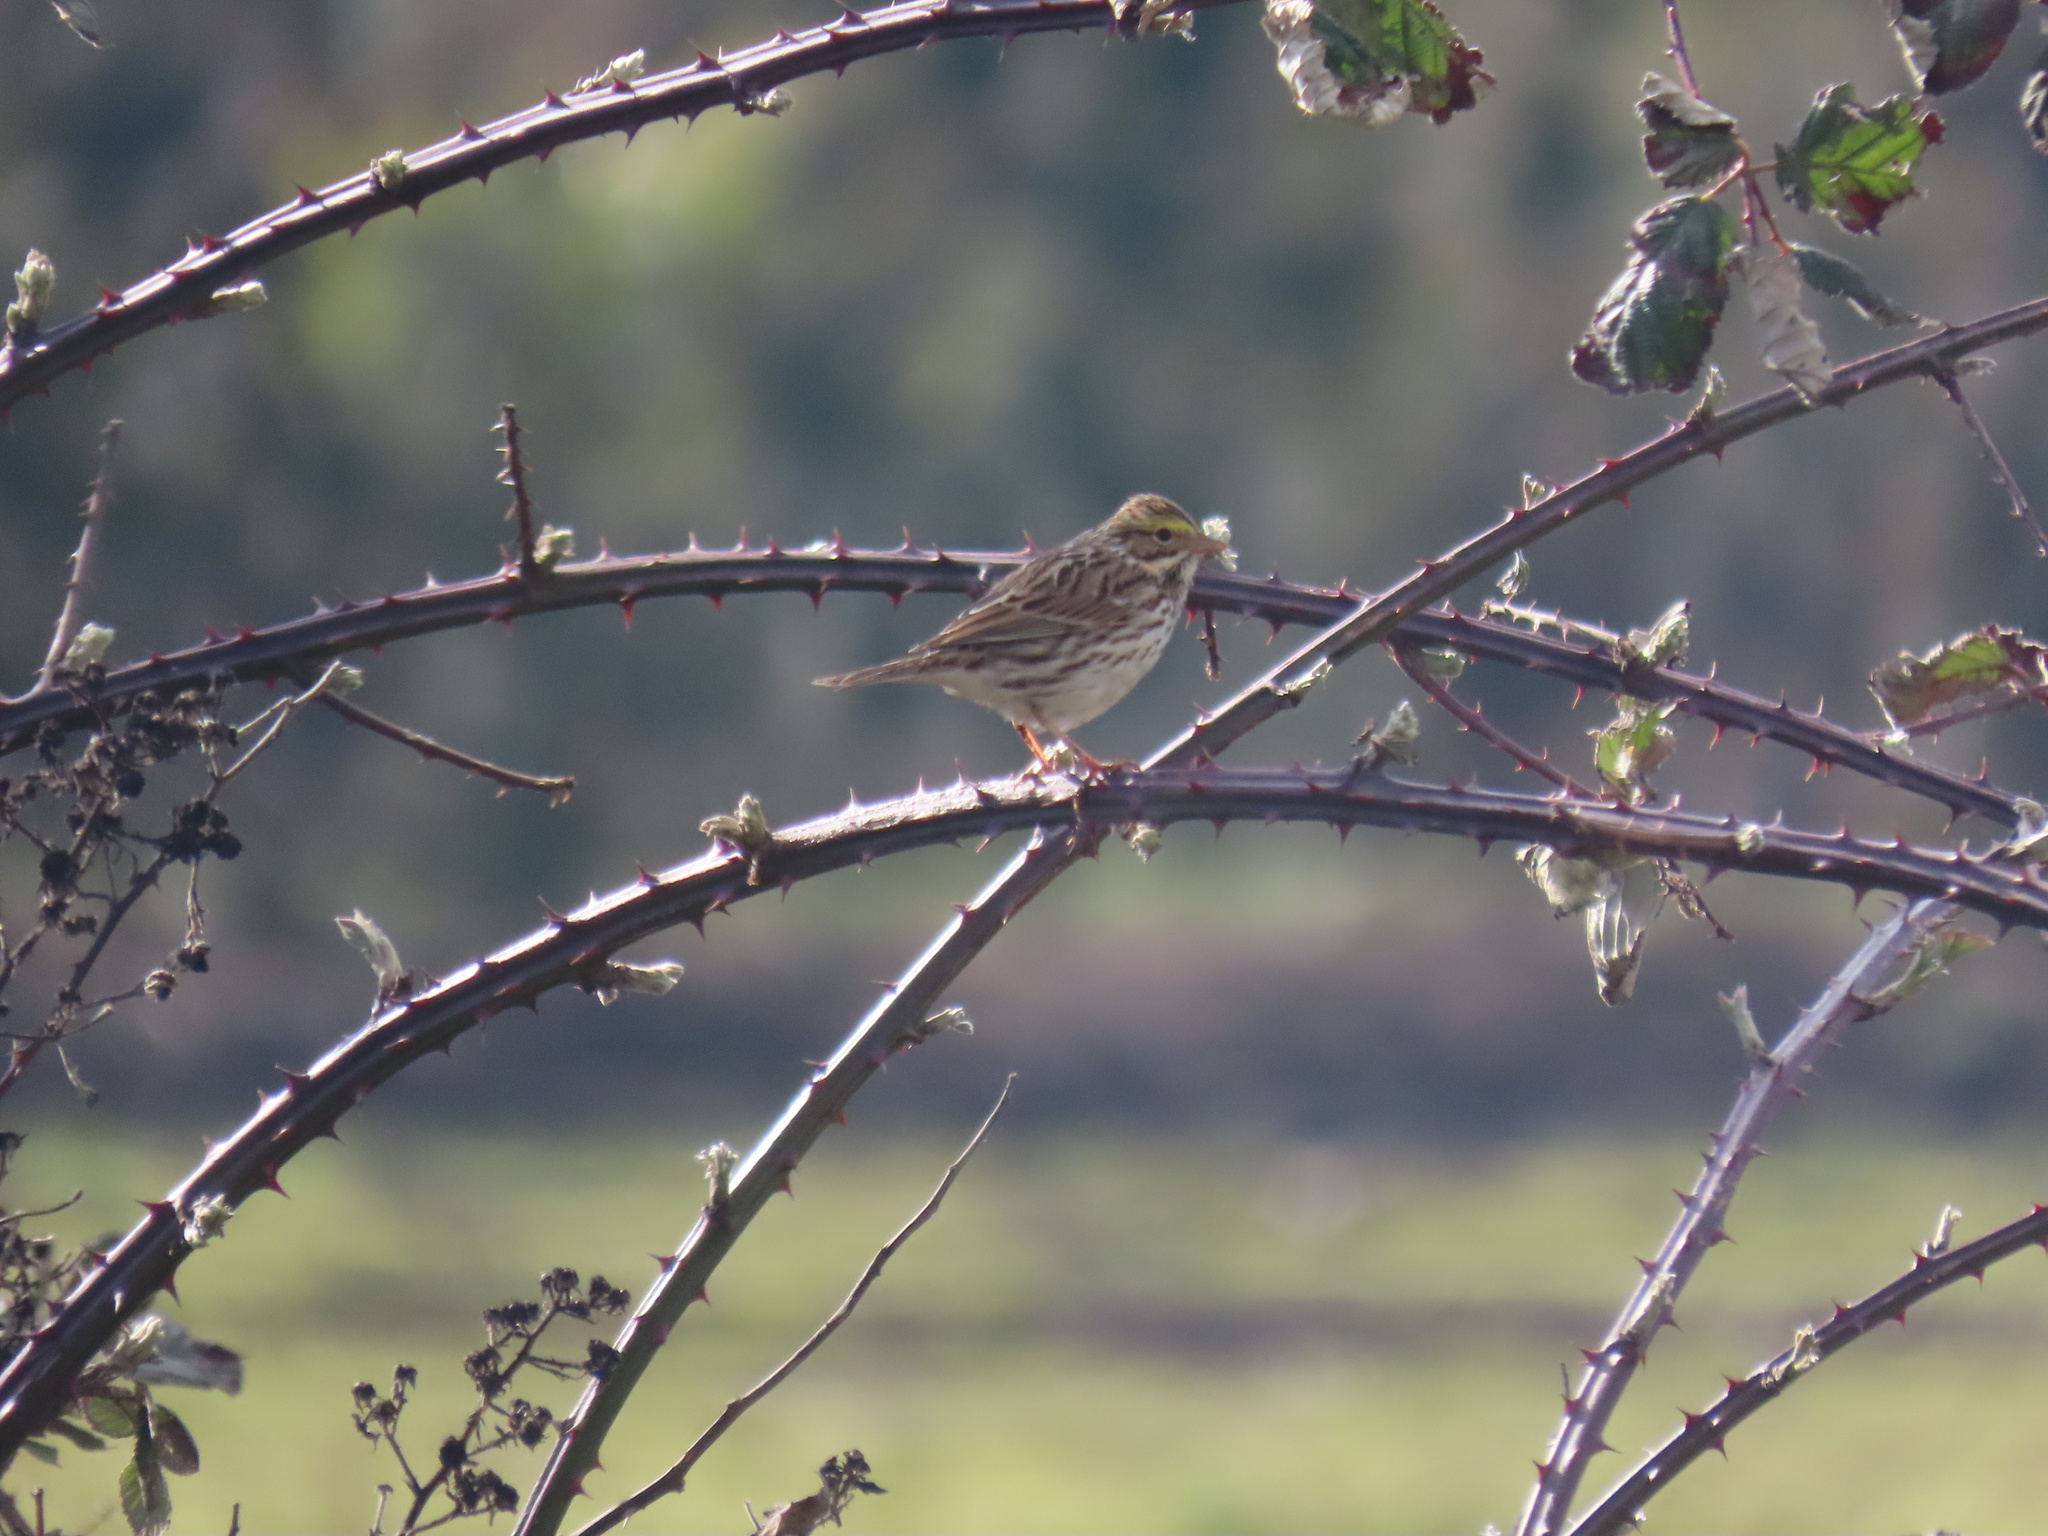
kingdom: Animalia
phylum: Chordata
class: Aves
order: Passeriformes
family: Passerellidae
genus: Passerculus
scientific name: Passerculus sandwichensis
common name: Savannah sparrow
